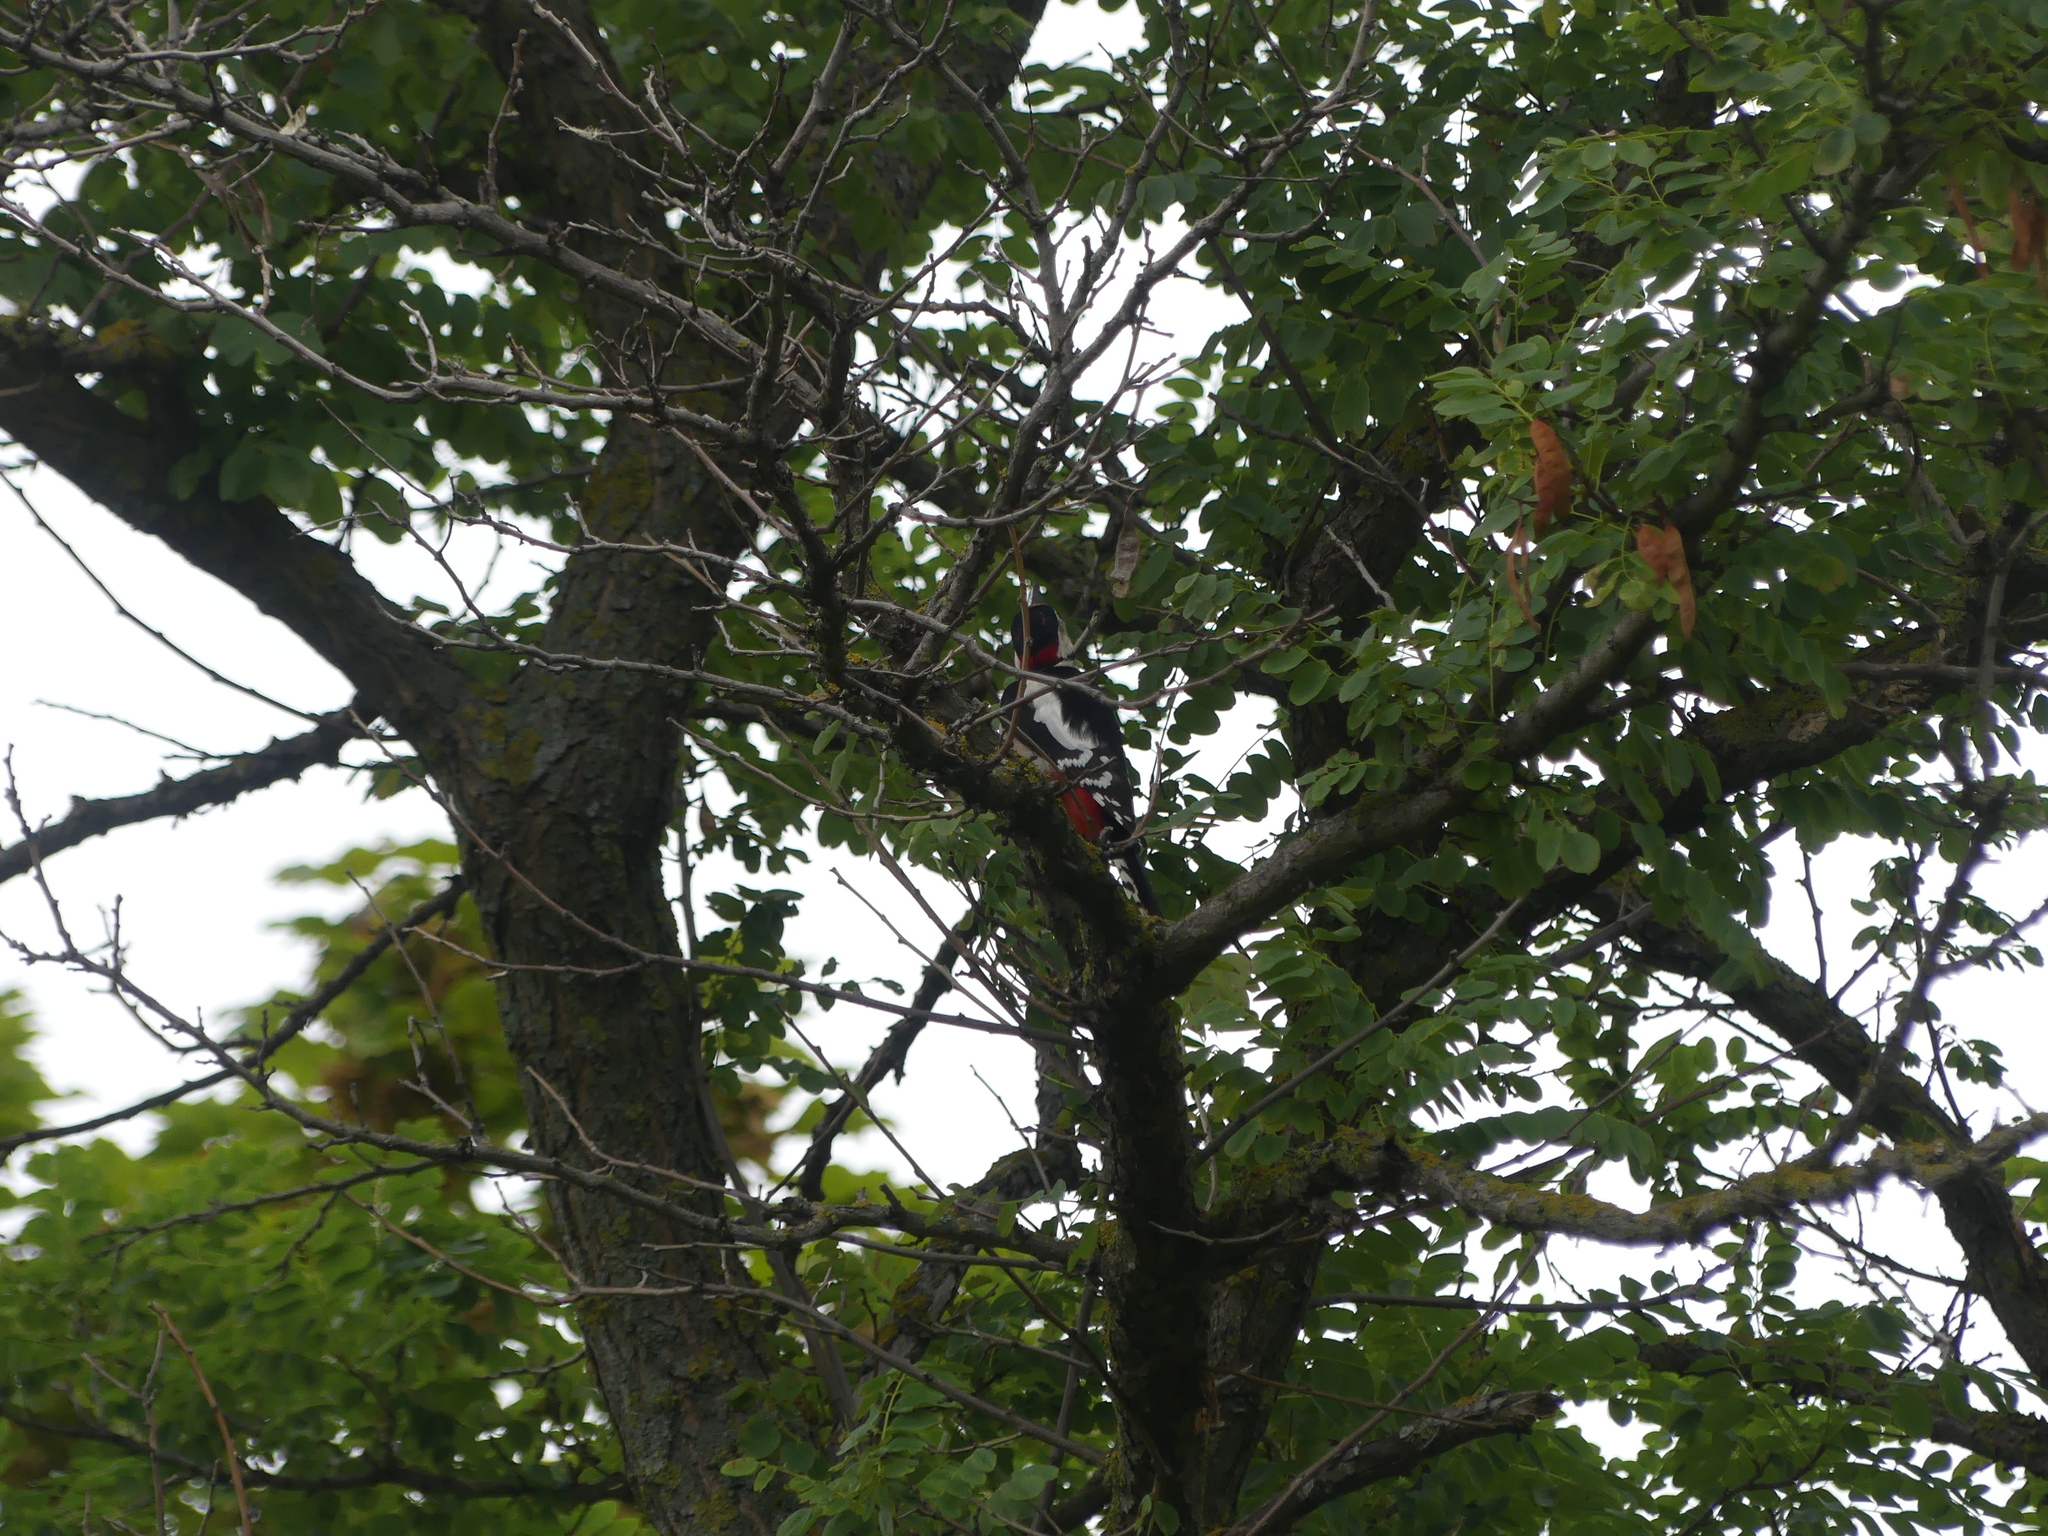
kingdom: Animalia
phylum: Chordata
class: Aves
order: Piciformes
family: Picidae
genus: Dendrocopos
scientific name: Dendrocopos major
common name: Great spotted woodpecker
